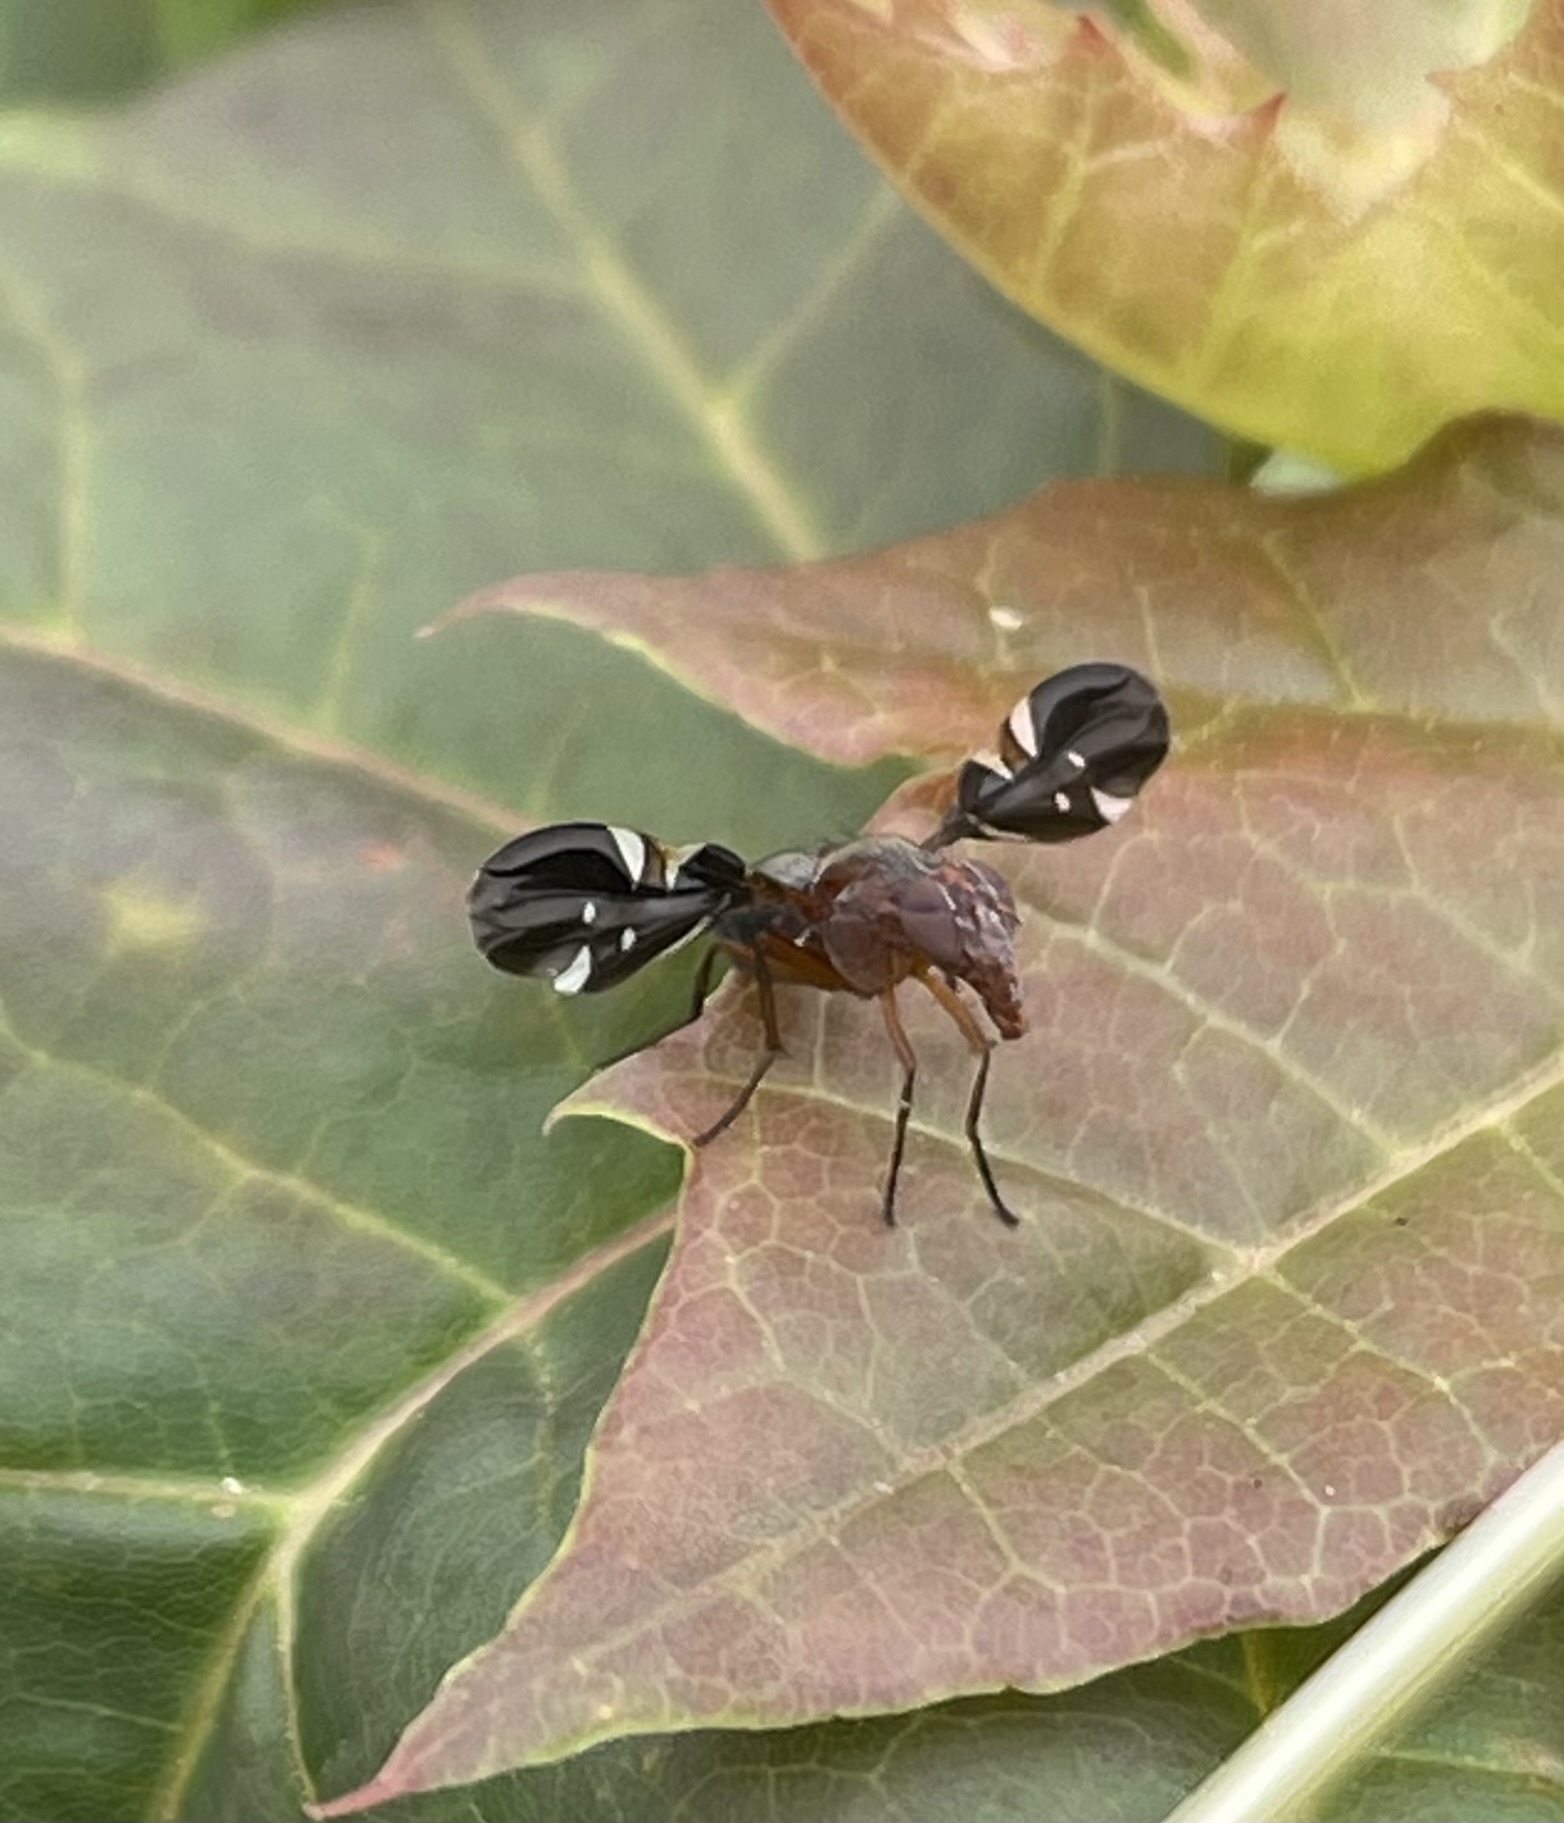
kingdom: Animalia
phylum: Arthropoda
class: Insecta
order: Diptera
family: Ulidiidae
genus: Delphinia
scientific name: Delphinia picta
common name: Common picture-winged fly
